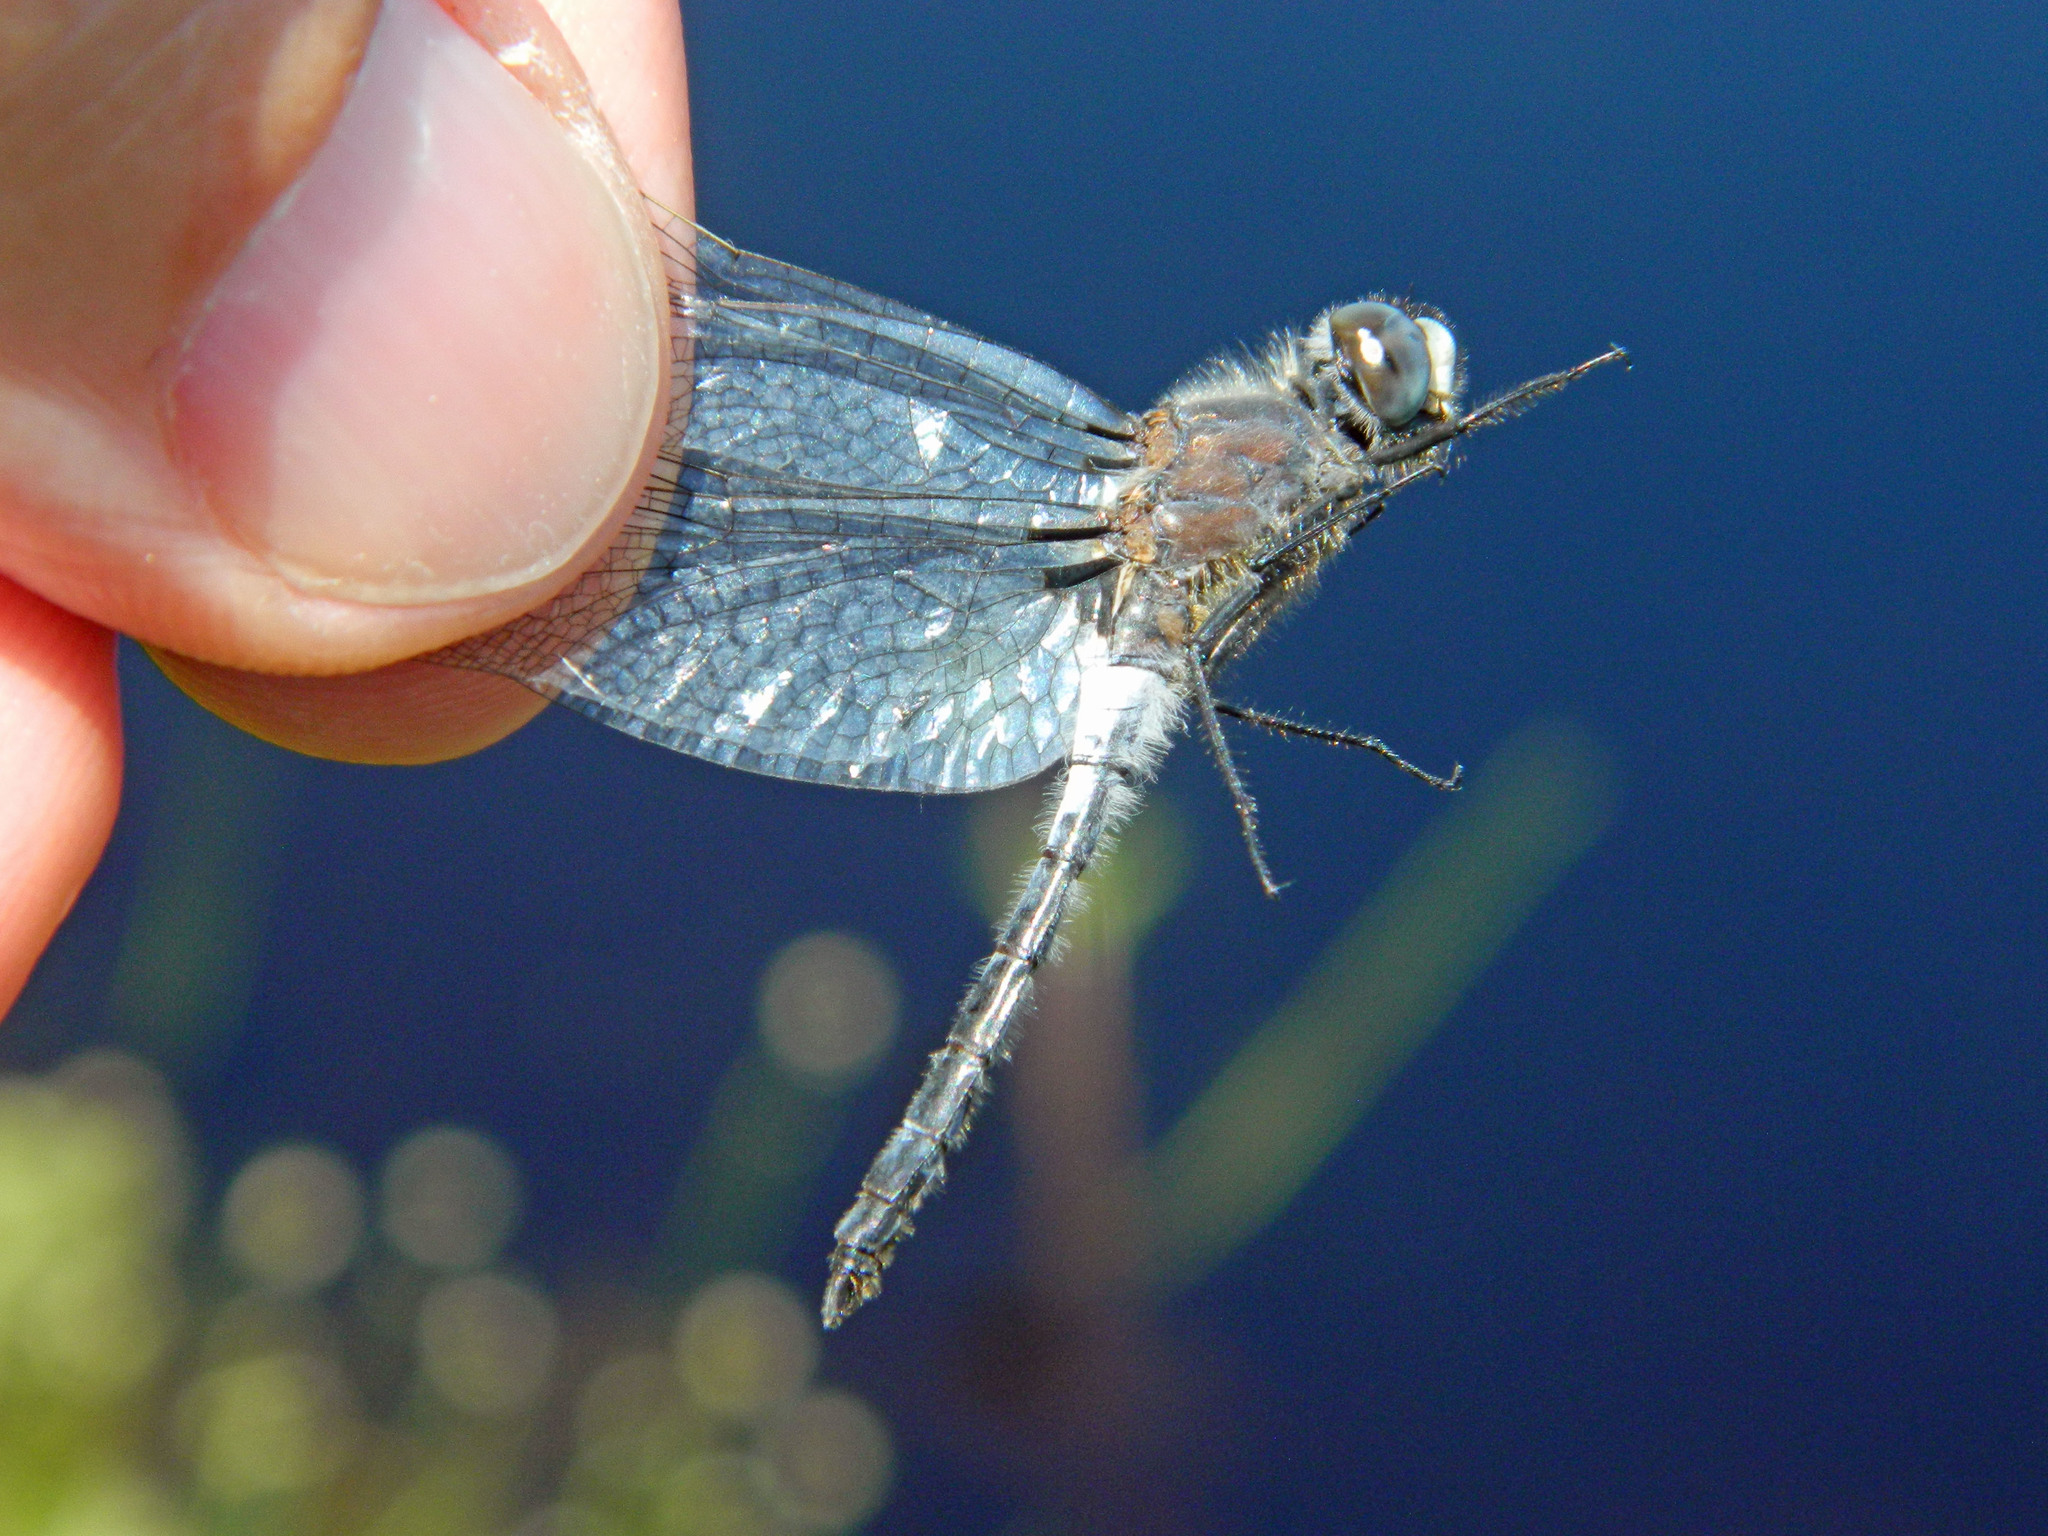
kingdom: Animalia
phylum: Arthropoda
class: Insecta
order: Odonata
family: Libellulidae
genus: Leucorrhinia
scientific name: Leucorrhinia frigida
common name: Frosted whiteface
